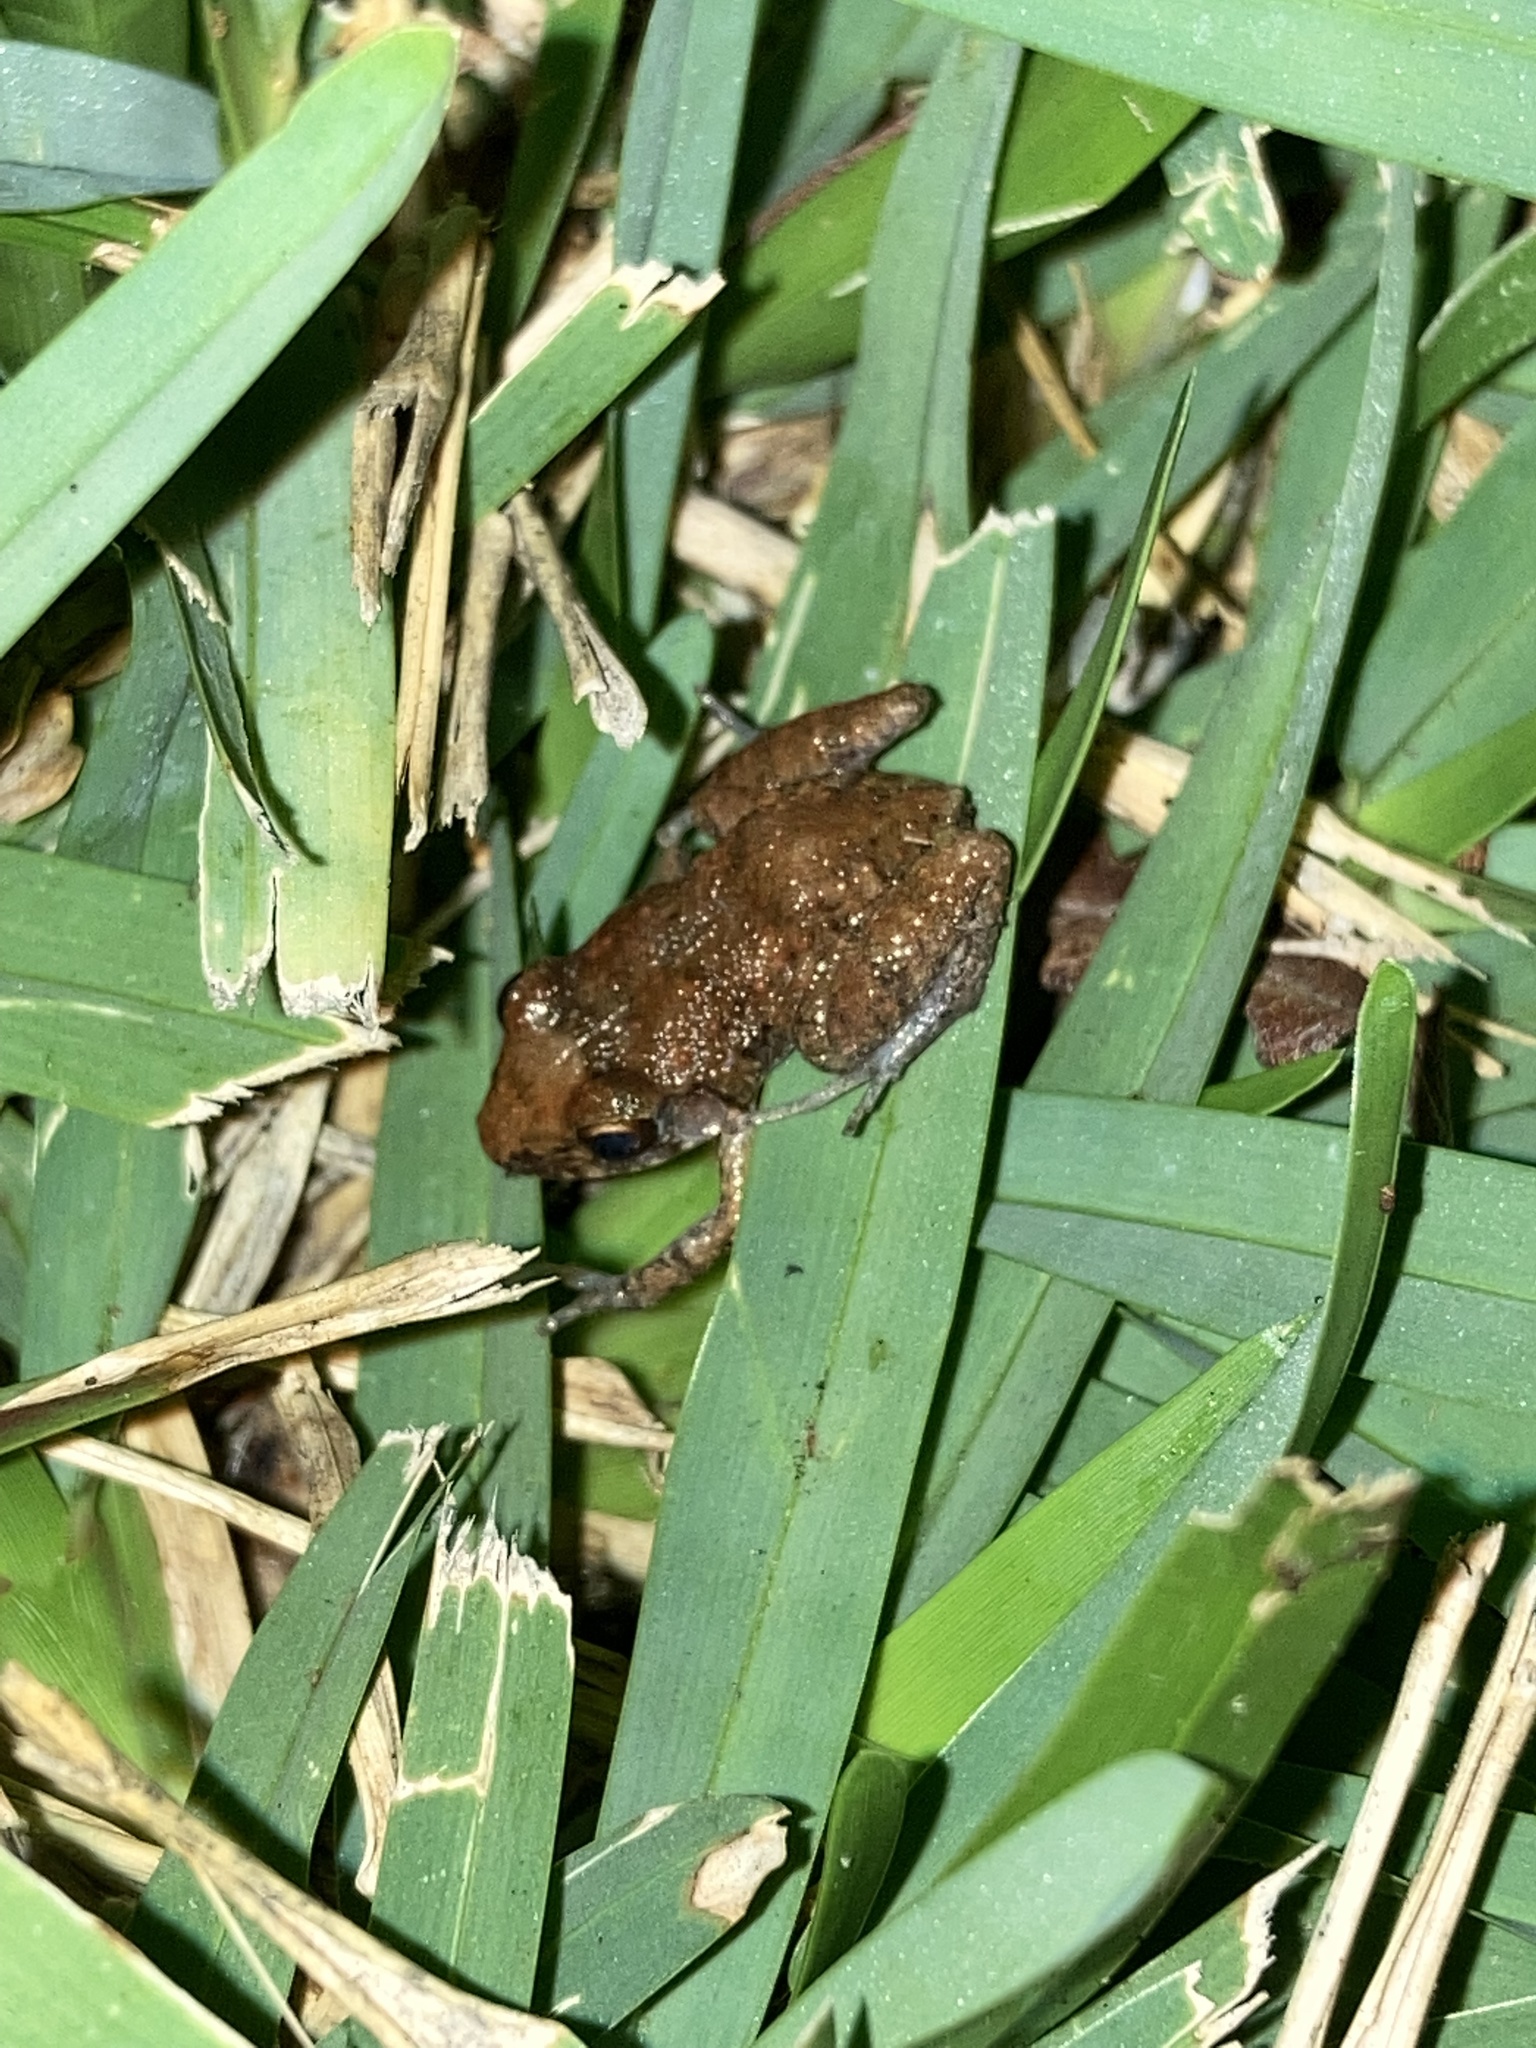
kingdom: Animalia
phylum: Chordata
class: Amphibia
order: Anura
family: Eleutherodactylidae
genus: Eleutherodactylus
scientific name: Eleutherodactylus planirostris
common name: Greenhouse frog
